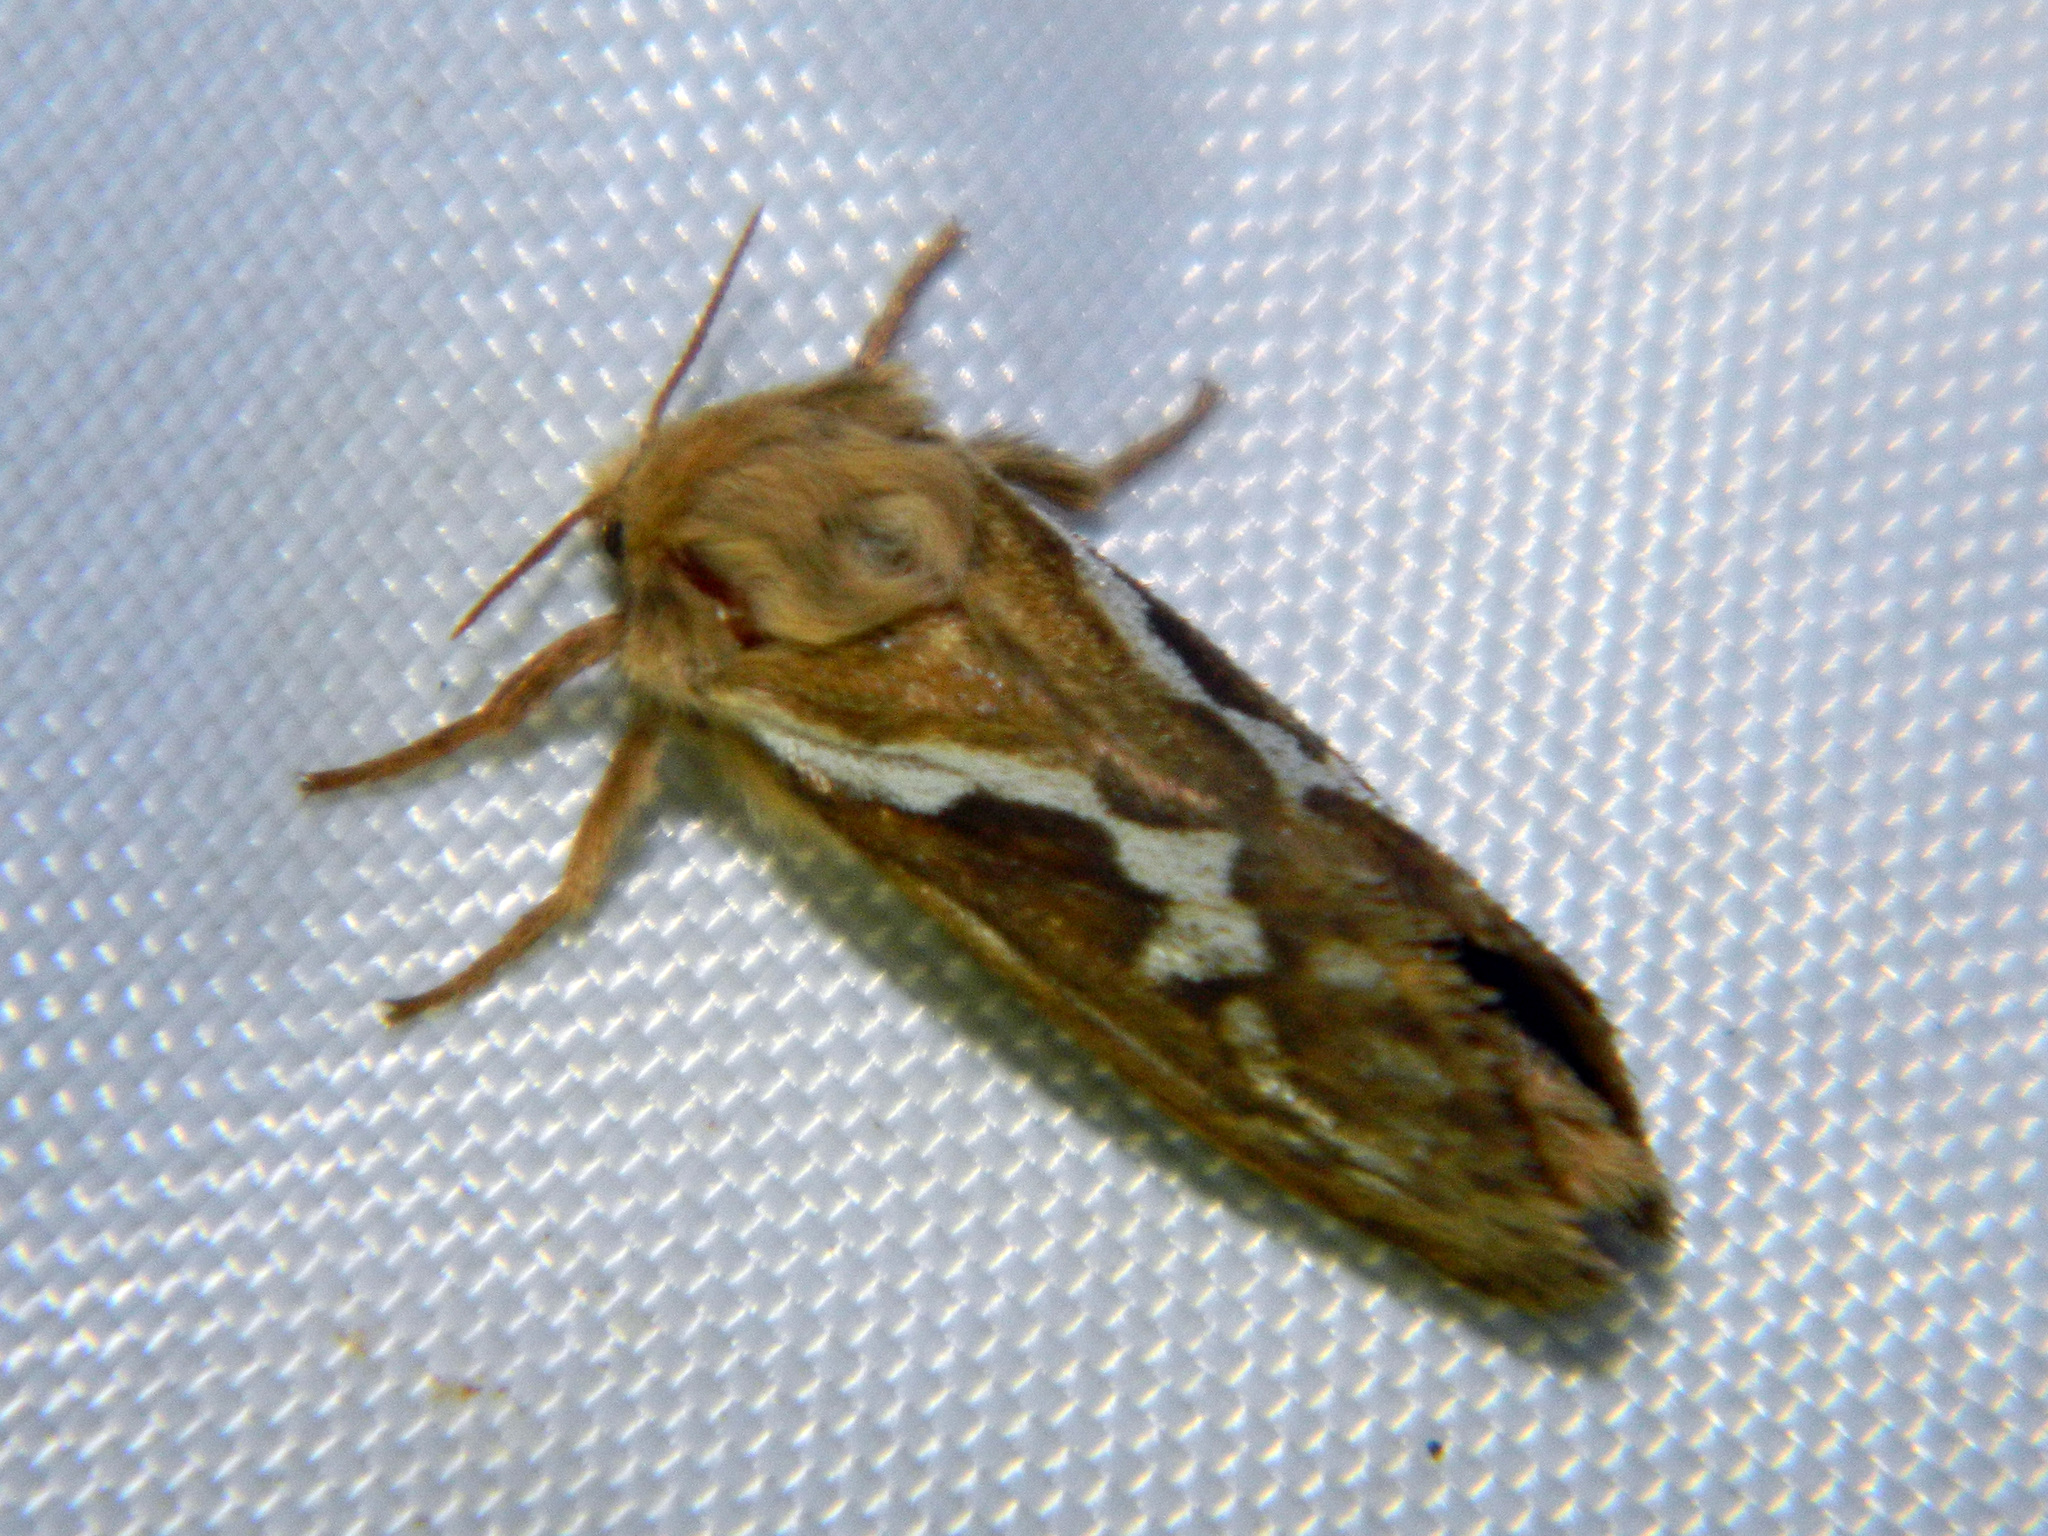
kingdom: Animalia
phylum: Arthropoda
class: Insecta
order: Lepidoptera
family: Hepialidae
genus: Korscheltellus
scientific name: Korscheltellus lupulina
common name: Common swift
